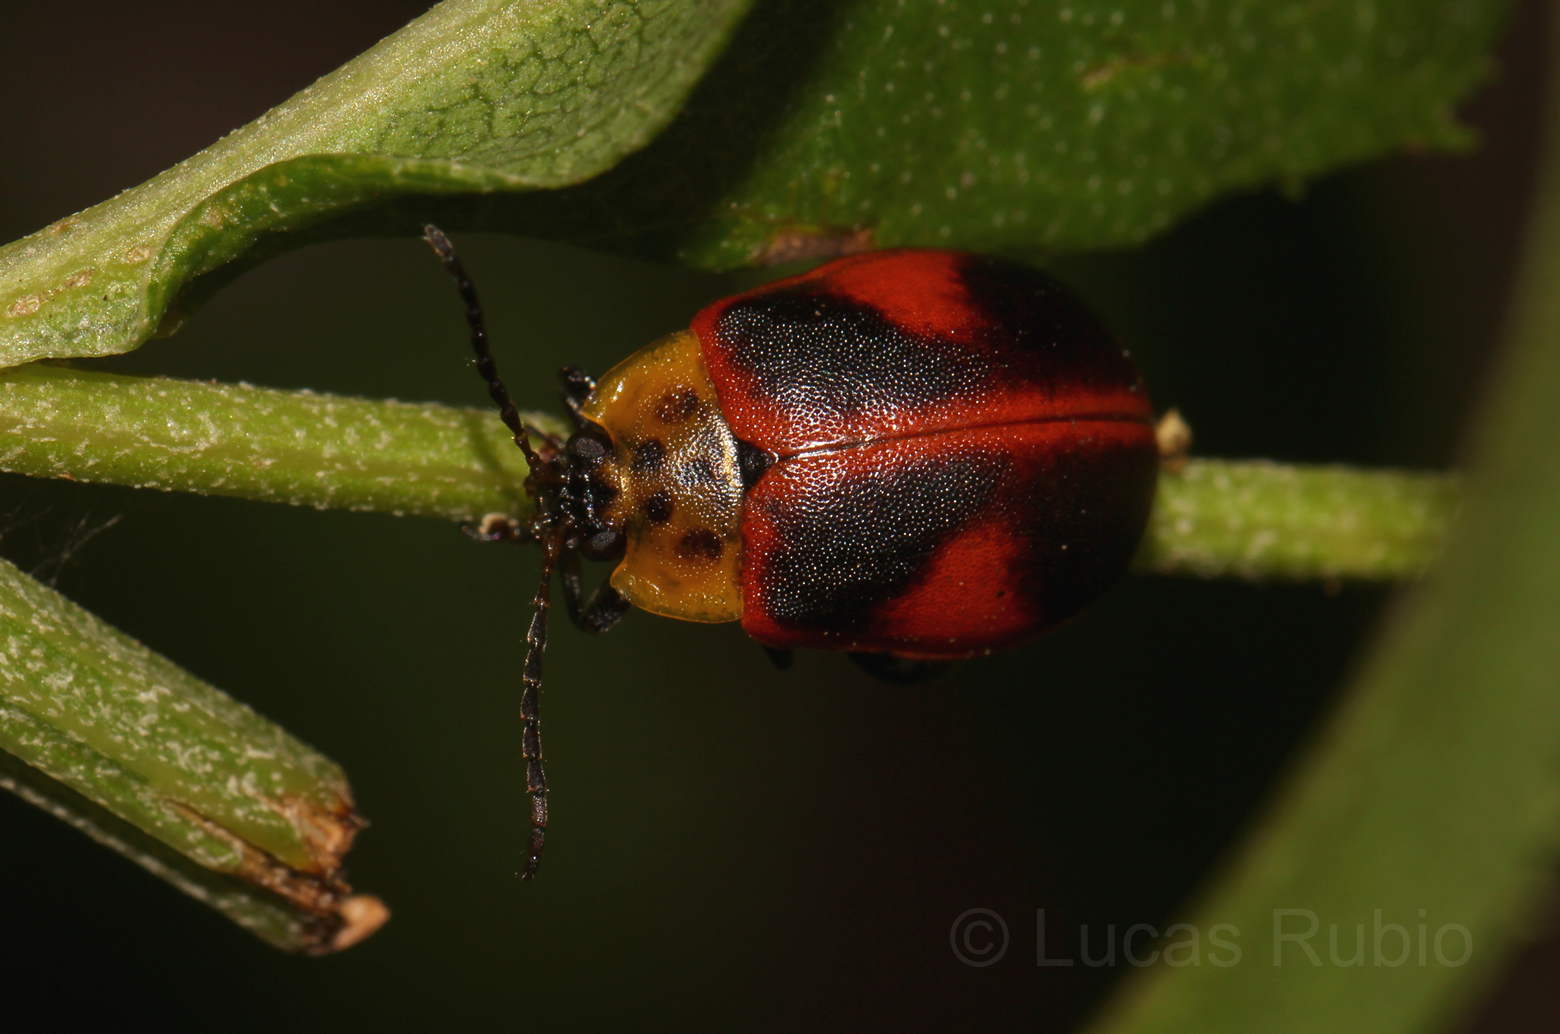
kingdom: Animalia
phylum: Arthropoda
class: Insecta
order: Coleoptera
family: Chrysomelidae
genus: Paranaita
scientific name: Paranaita
